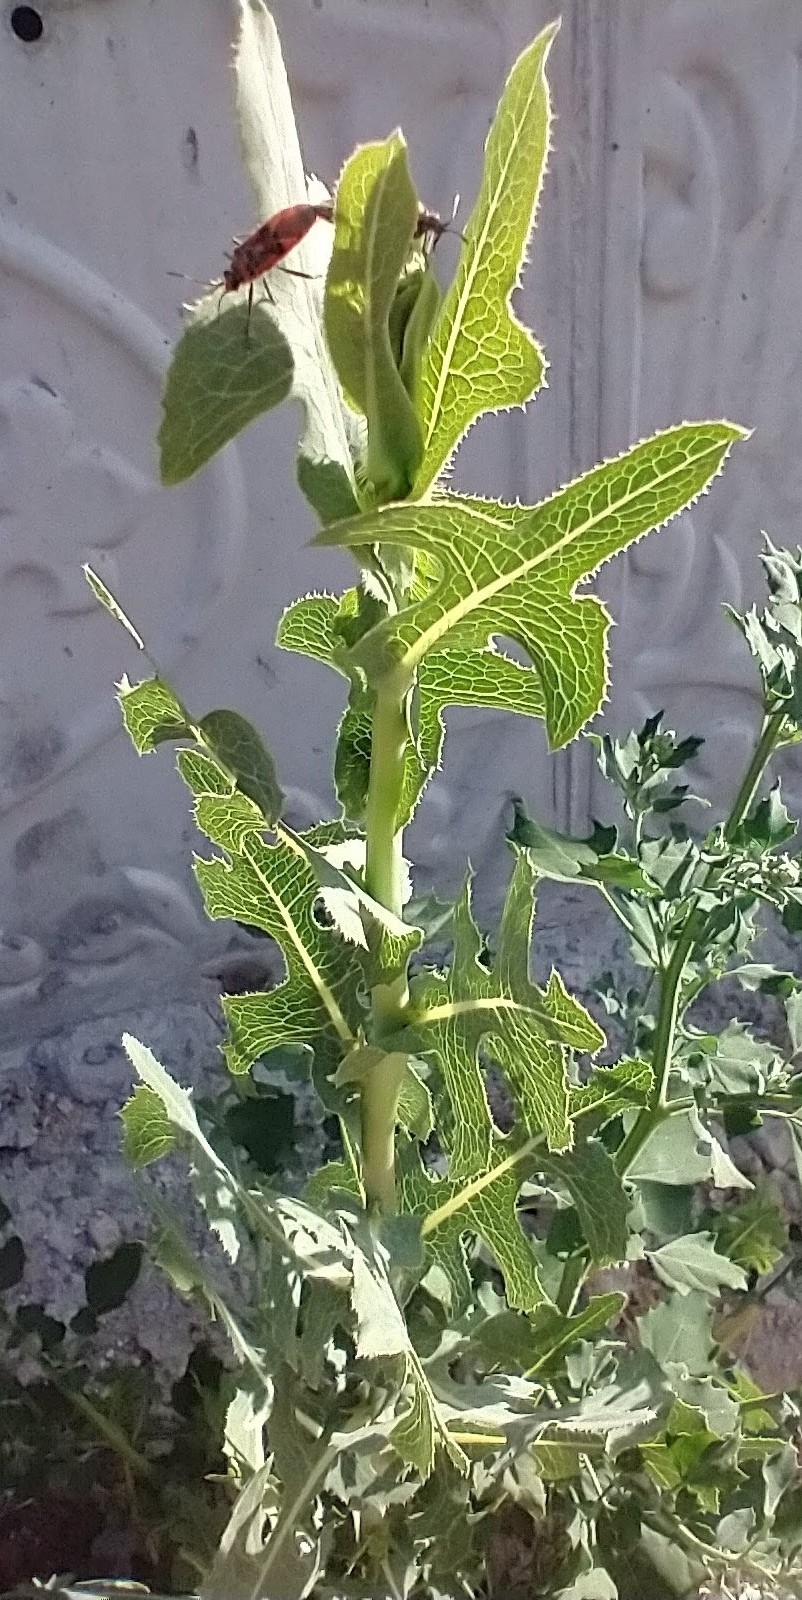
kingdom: Plantae
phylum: Tracheophyta
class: Magnoliopsida
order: Asterales
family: Asteraceae
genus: Lactuca
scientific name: Lactuca serriola
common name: Prickly lettuce
